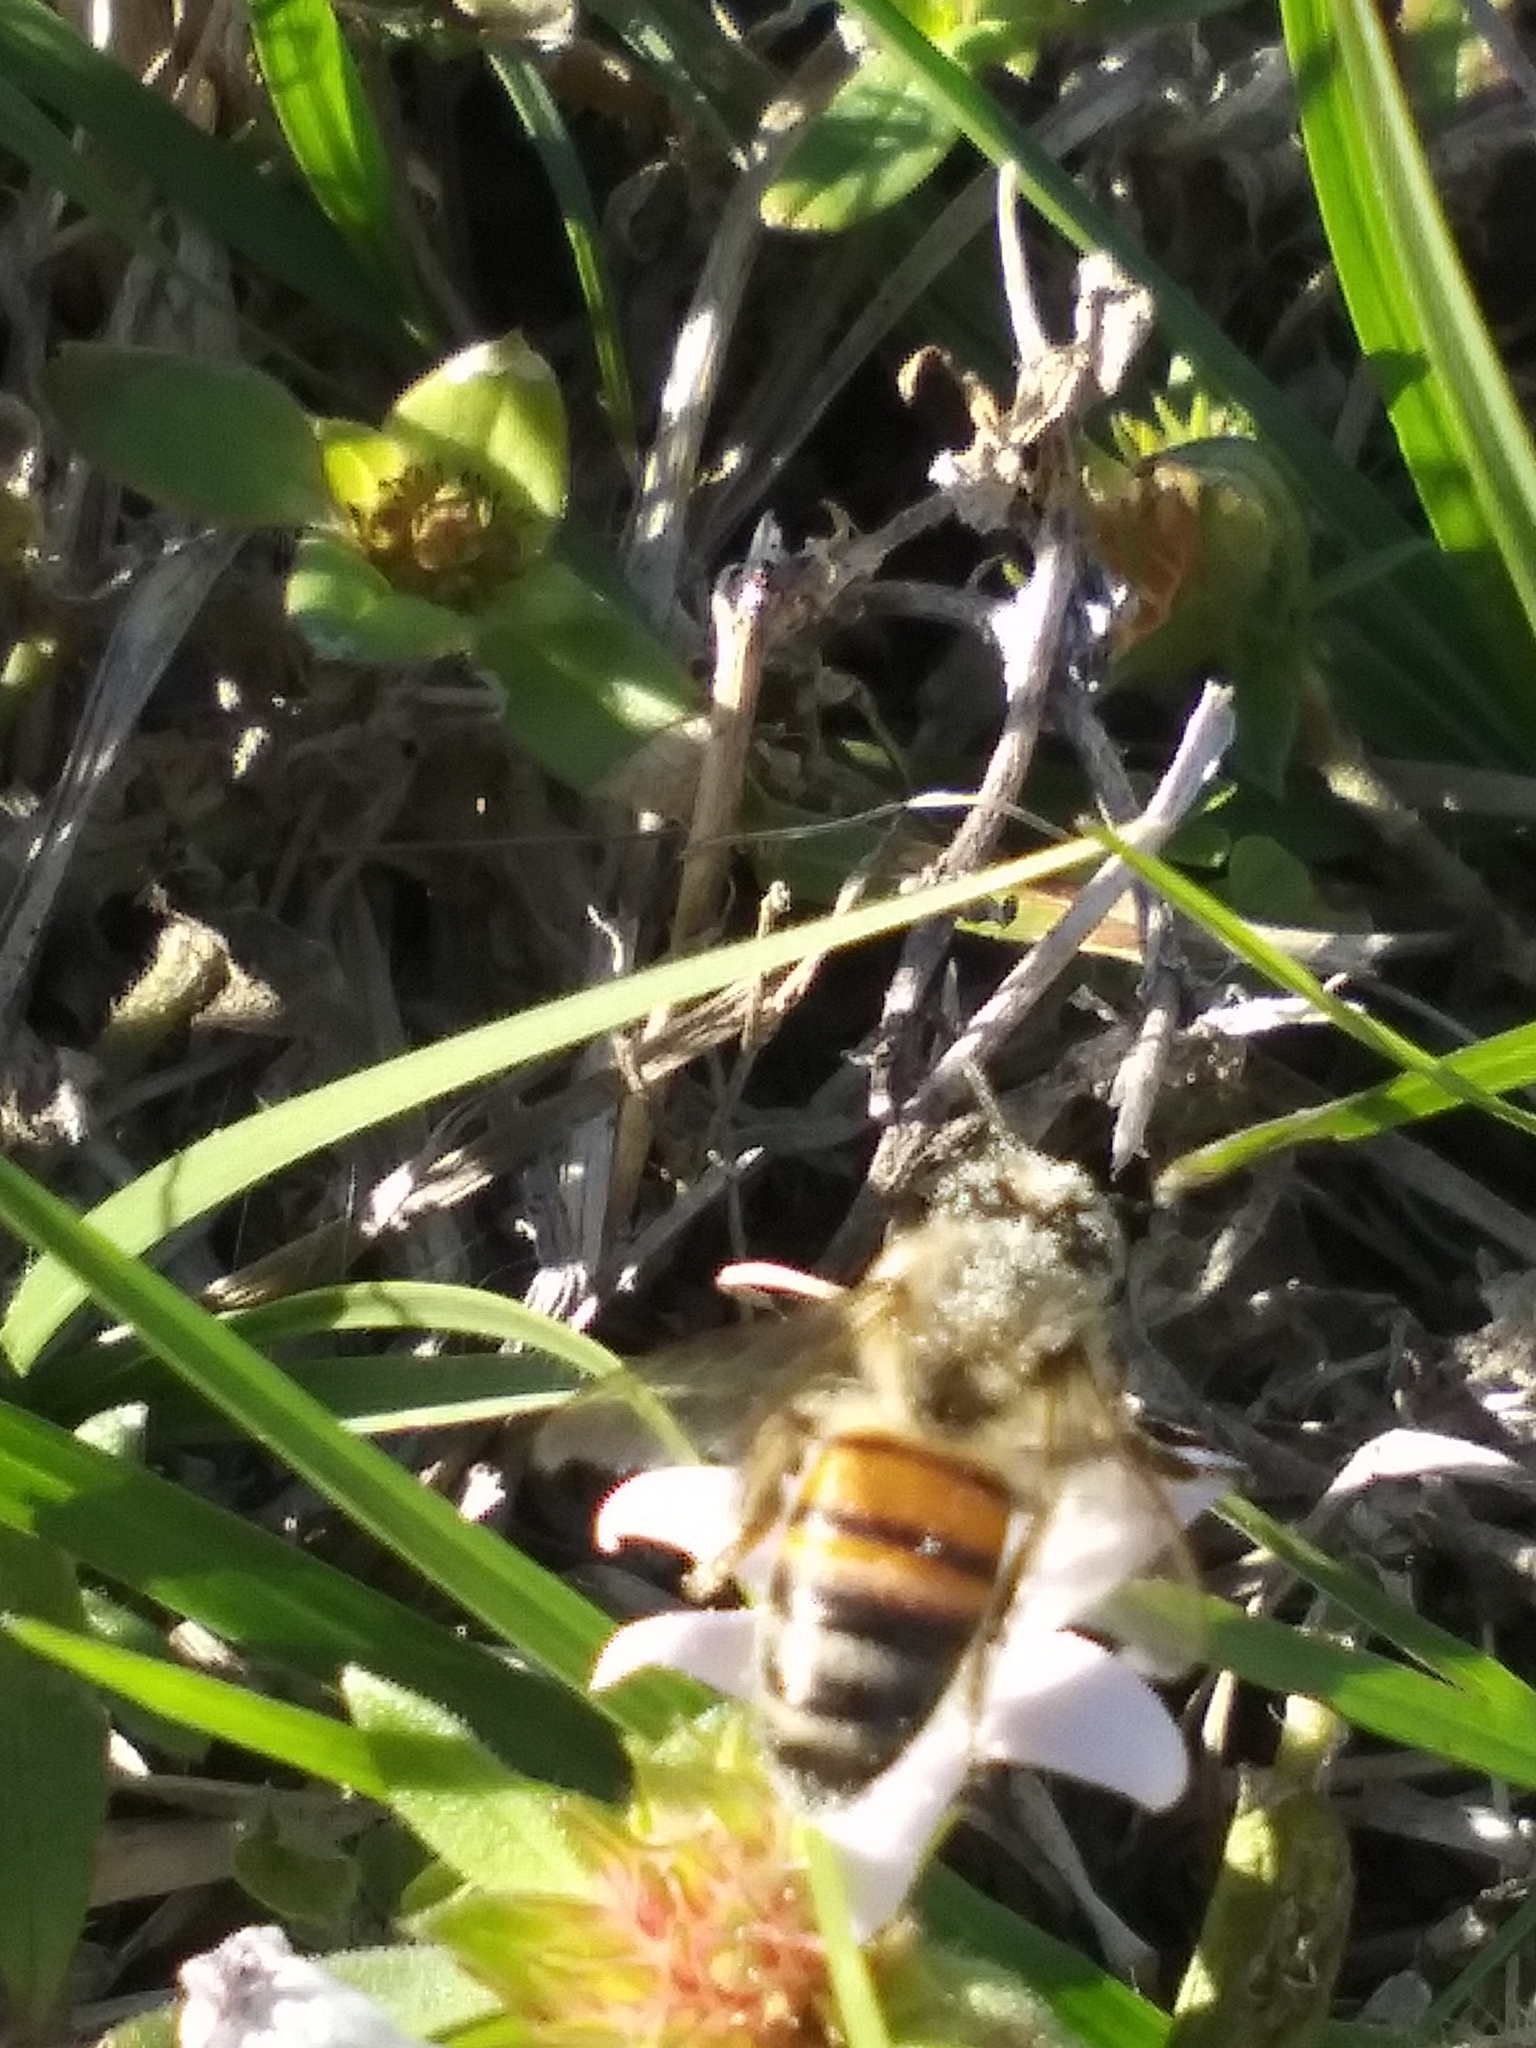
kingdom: Animalia
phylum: Arthropoda
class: Insecta
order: Hymenoptera
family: Apidae
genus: Apis
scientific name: Apis mellifera
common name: Honey bee
